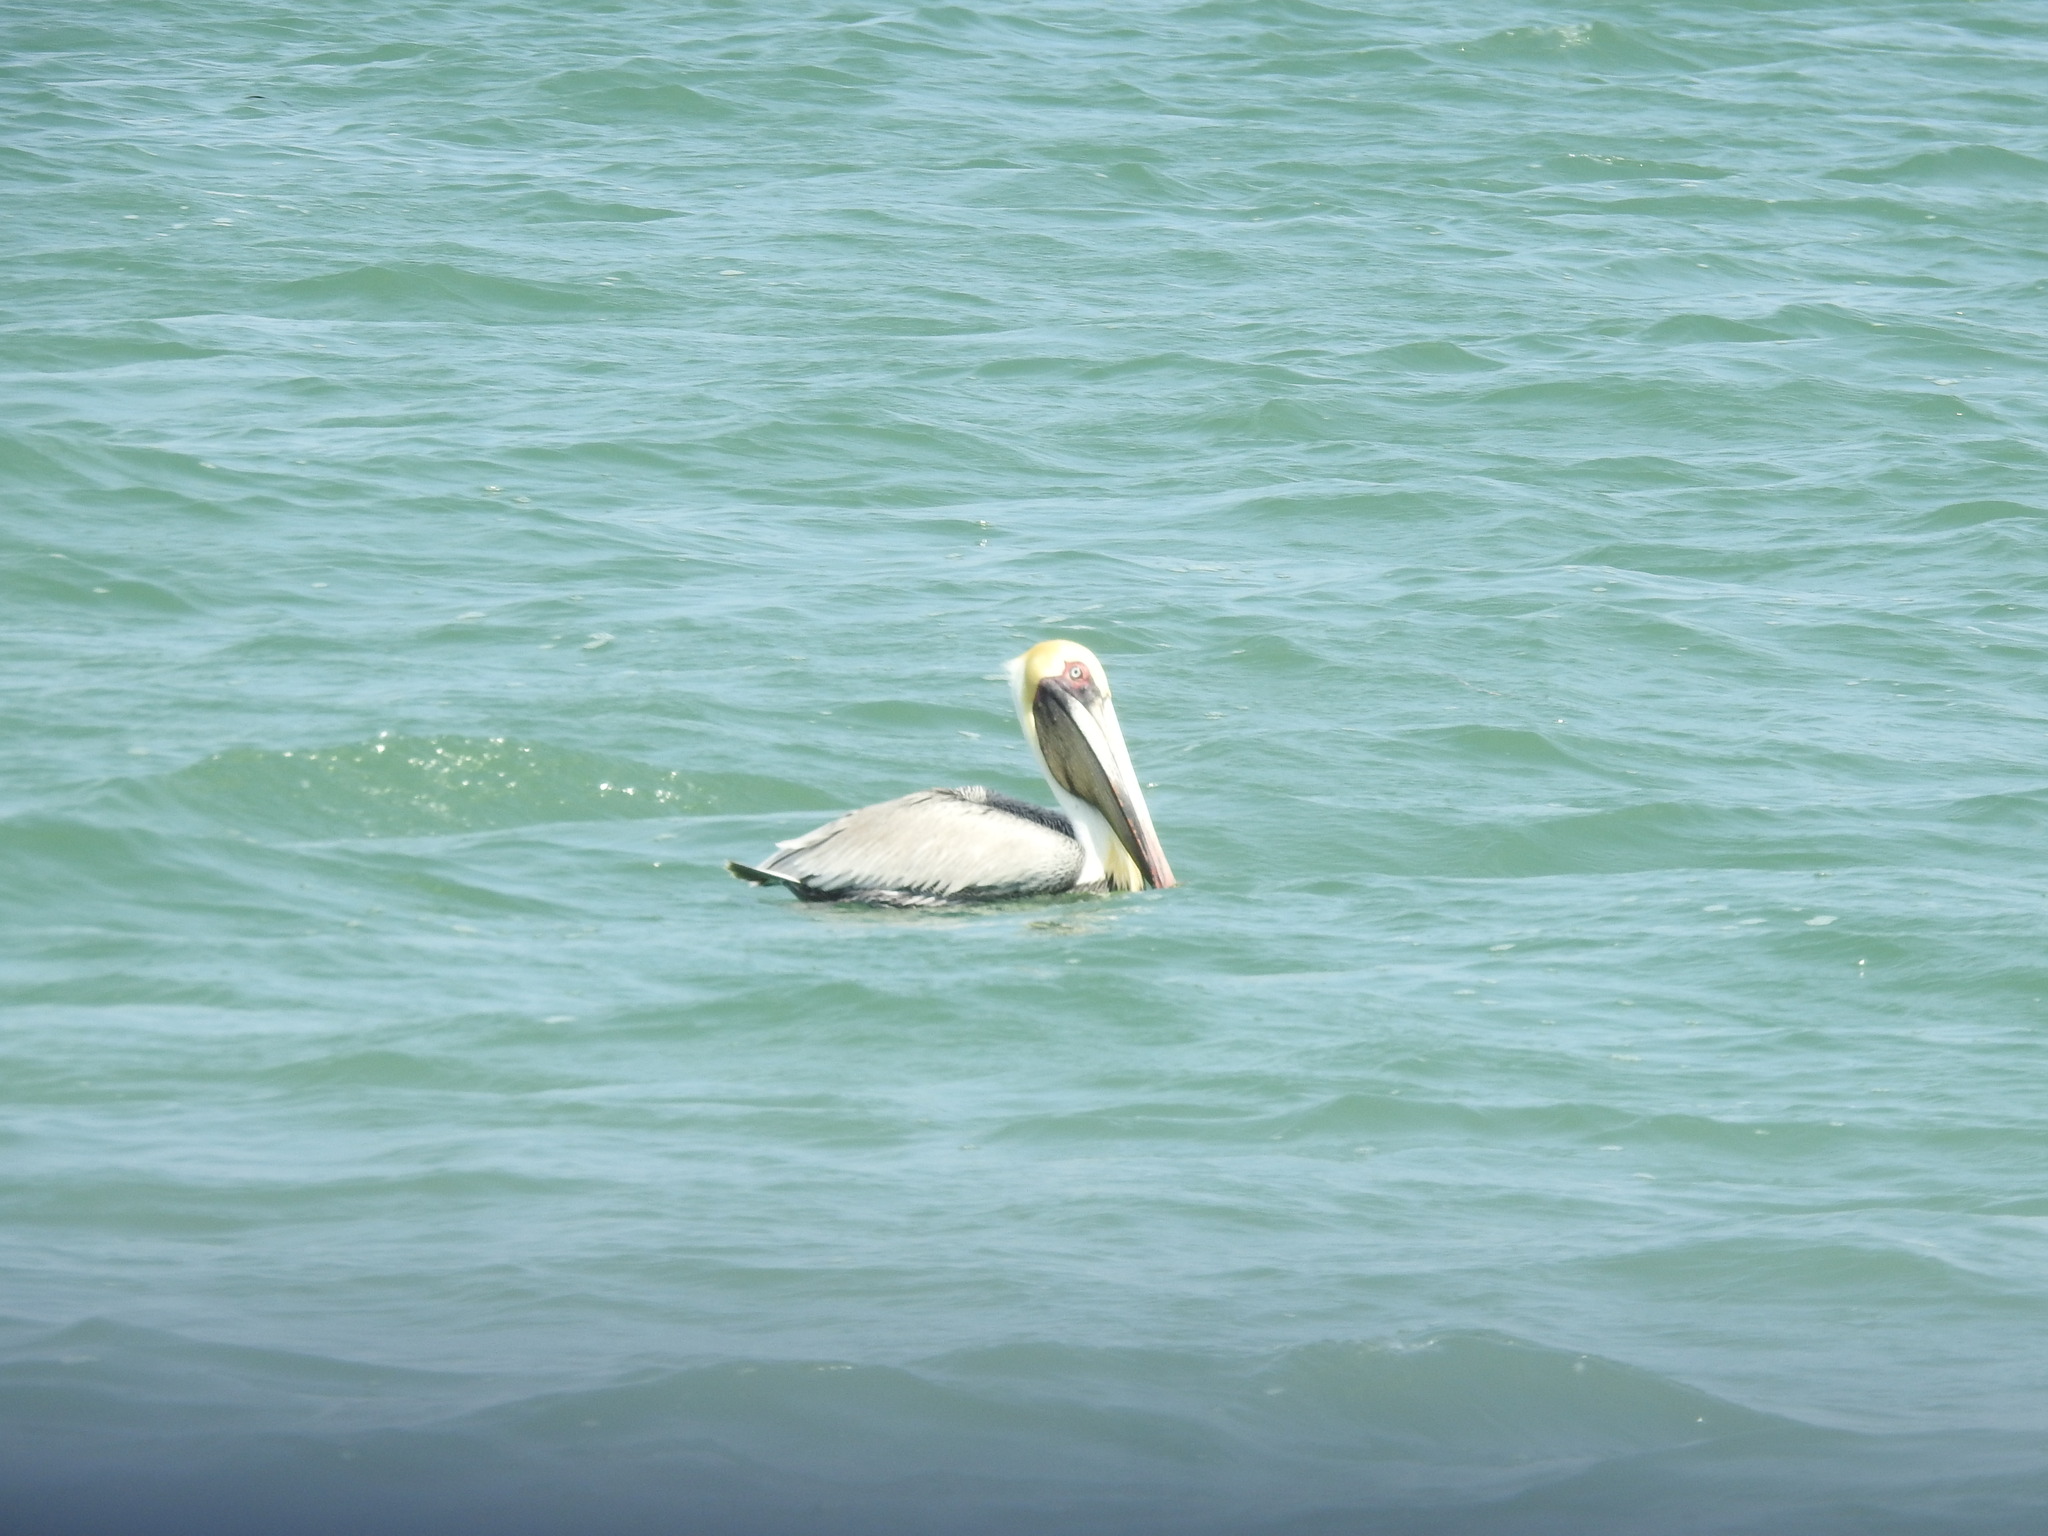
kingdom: Animalia
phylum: Chordata
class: Aves
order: Pelecaniformes
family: Pelecanidae
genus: Pelecanus
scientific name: Pelecanus occidentalis
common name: Brown pelican
